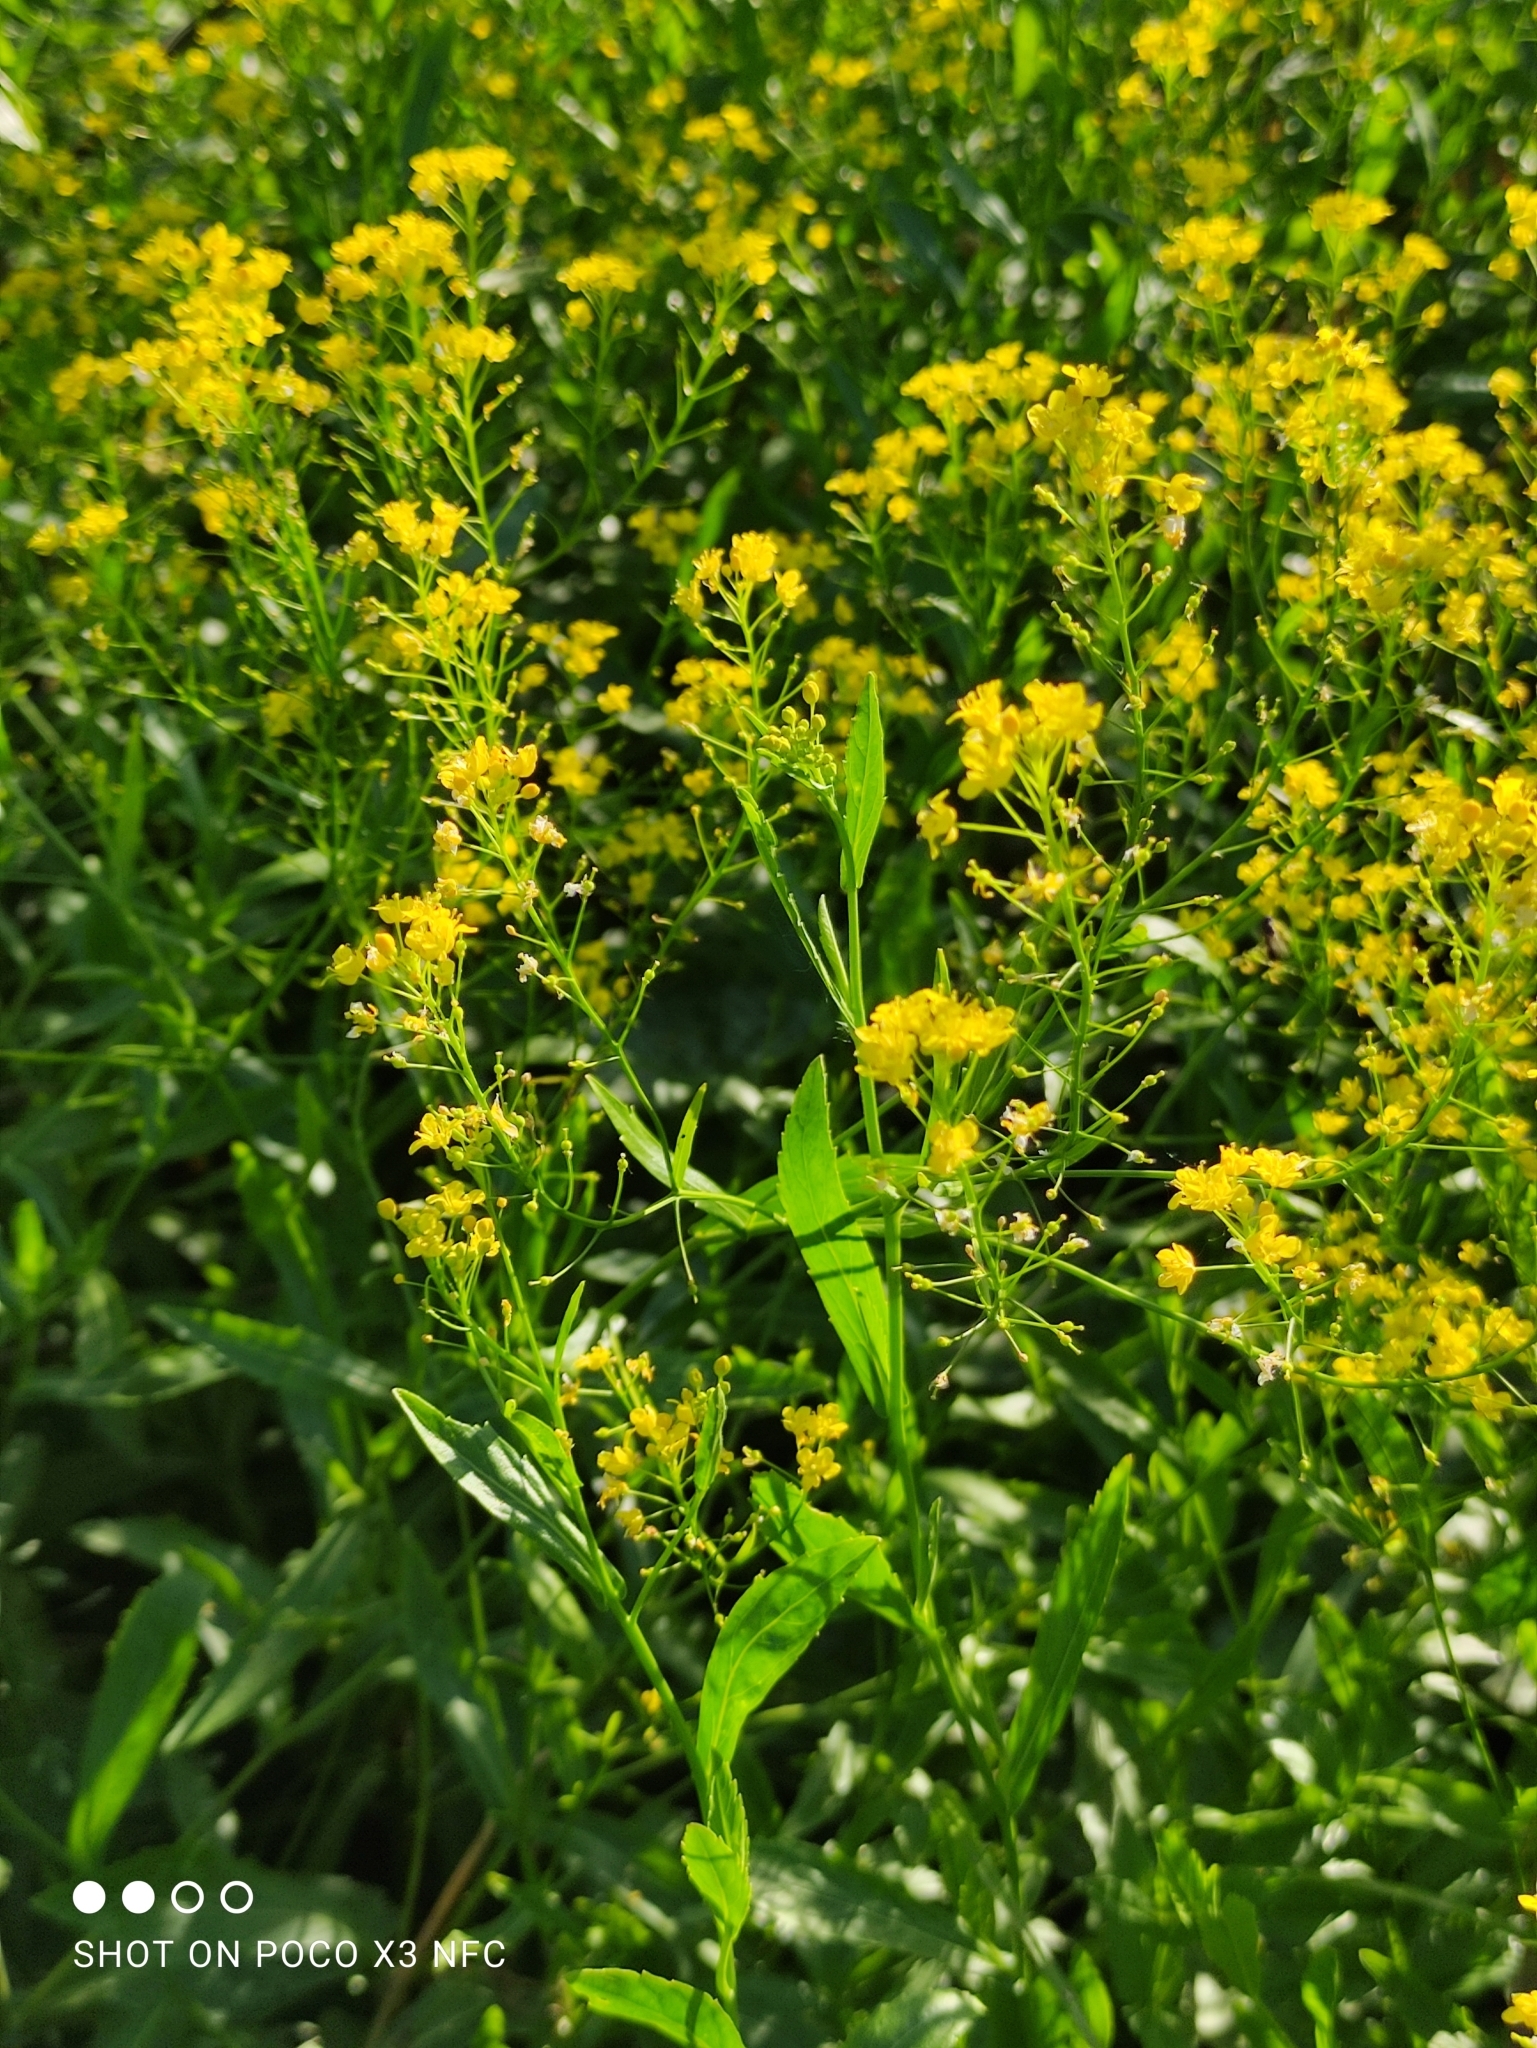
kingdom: Plantae
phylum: Tracheophyta
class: Magnoliopsida
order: Brassicales
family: Brassicaceae
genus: Rorippa
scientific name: Rorippa austriaca
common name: Austrian yellow-cress
